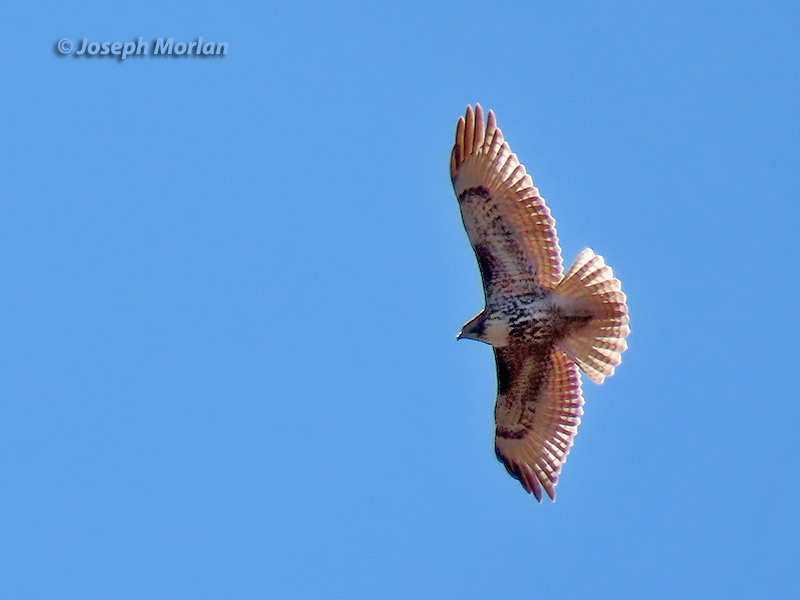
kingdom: Animalia
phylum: Chordata
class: Aves
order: Accipitriformes
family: Accipitridae
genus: Buteo
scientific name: Buteo jamaicensis
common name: Red-tailed hawk
